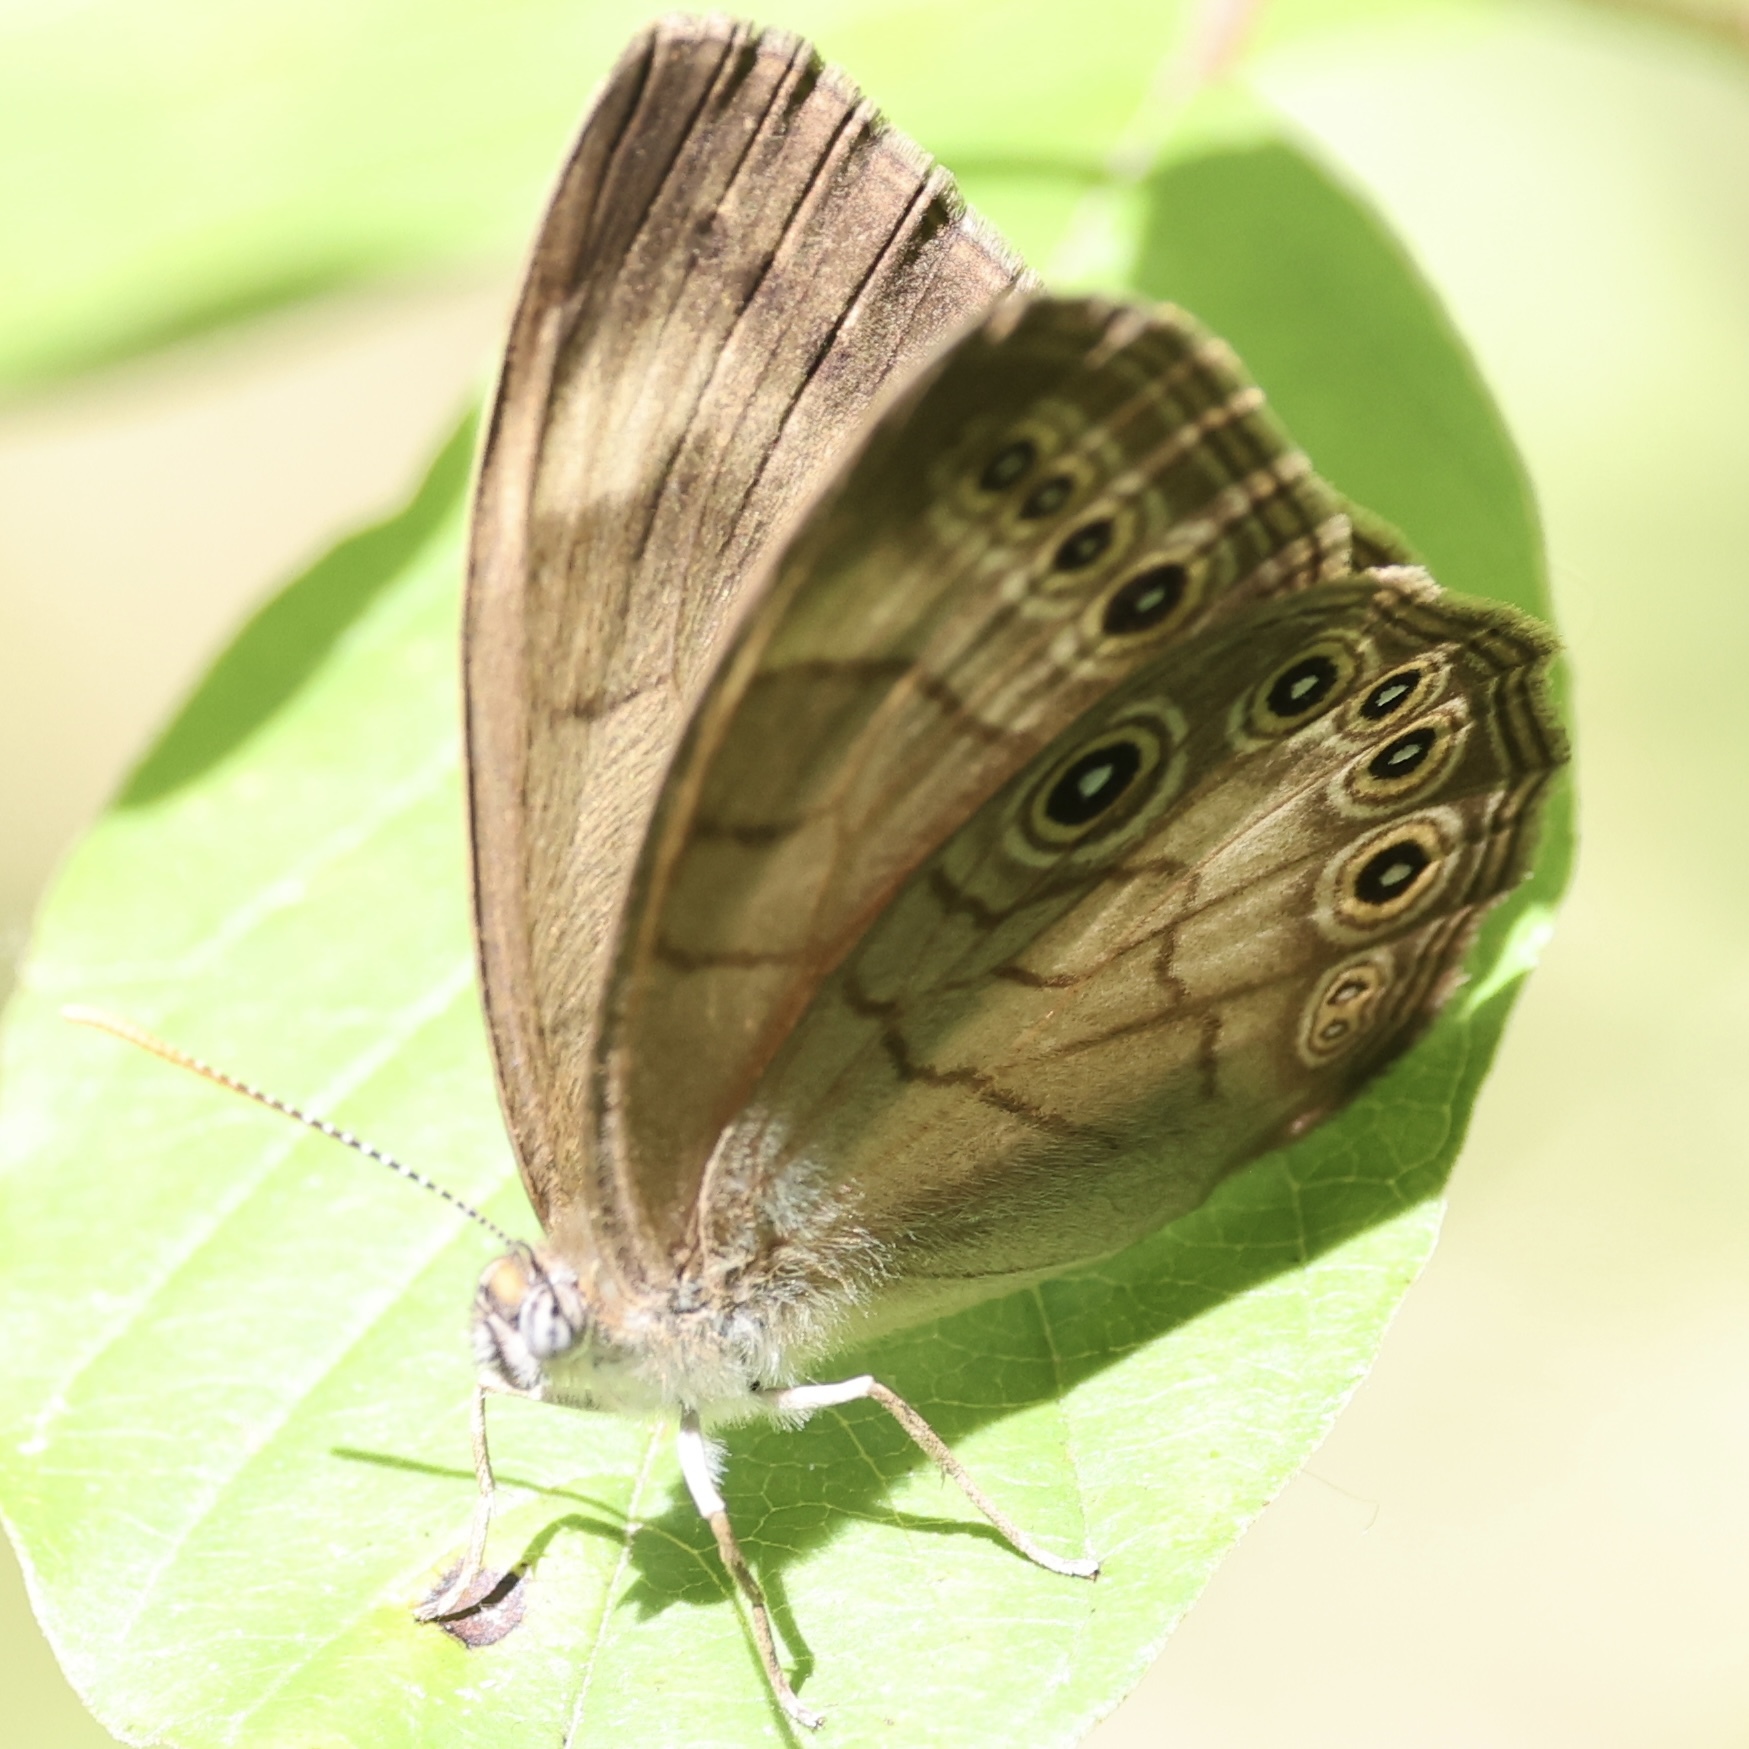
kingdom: Animalia
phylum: Arthropoda
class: Insecta
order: Lepidoptera
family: Nymphalidae
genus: Lethe
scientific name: Lethe eurydice
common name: Eyed brown
